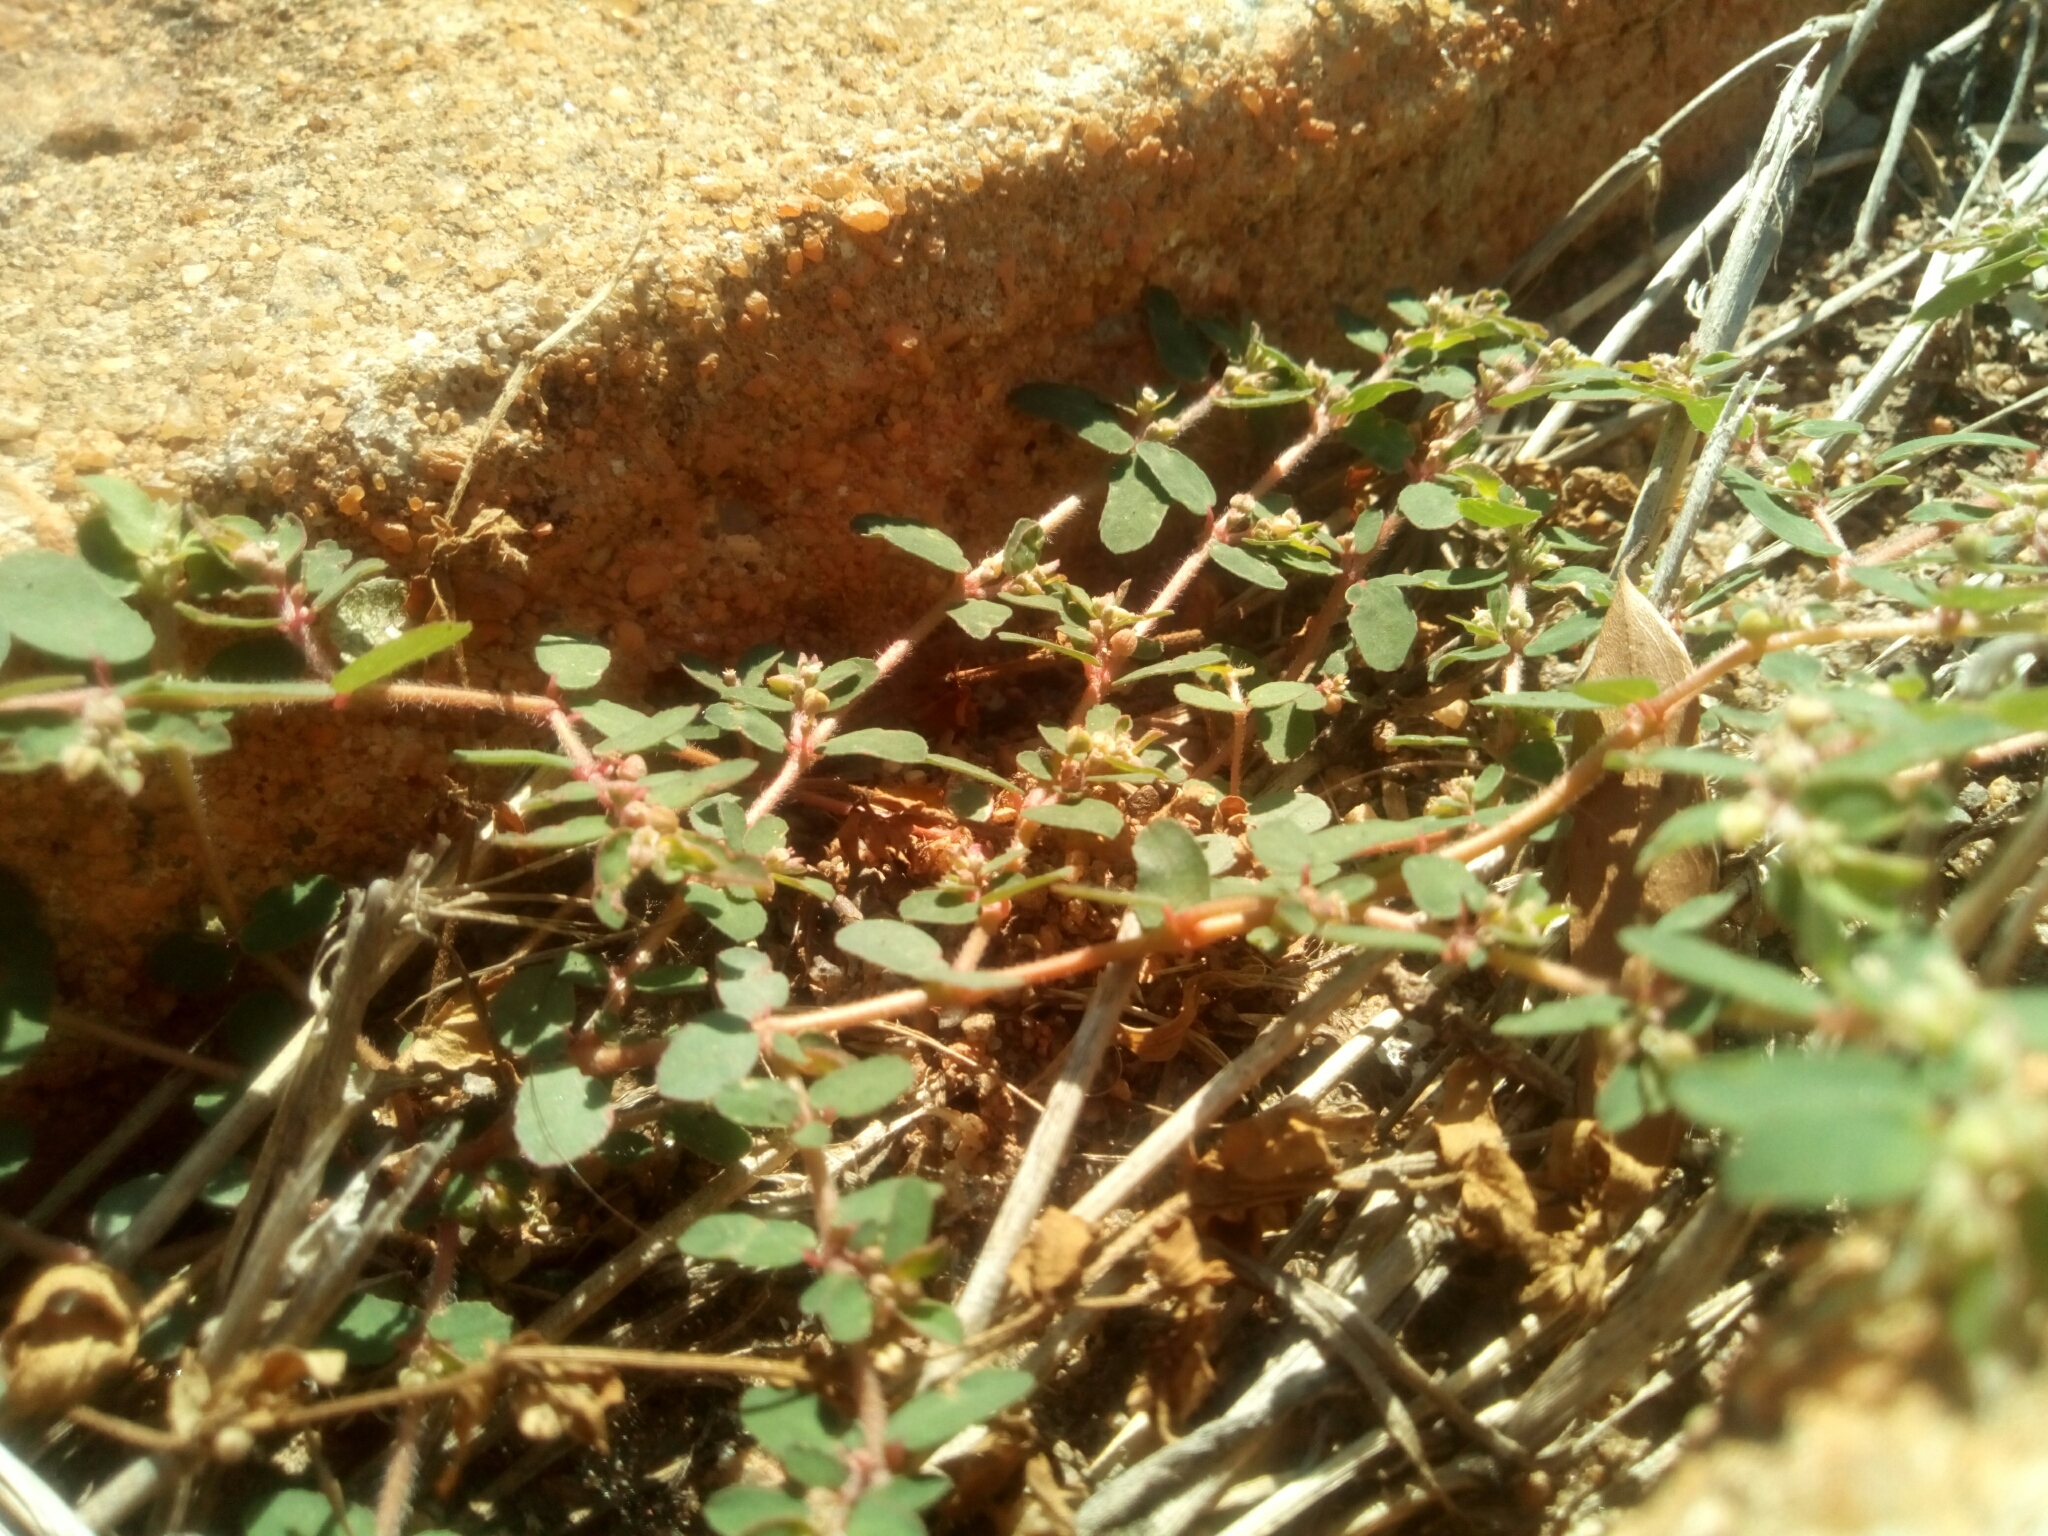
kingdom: Plantae
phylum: Tracheophyta
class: Magnoliopsida
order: Malpighiales
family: Euphorbiaceae
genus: Euphorbia
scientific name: Euphorbia maculata
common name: Spotted spurge
